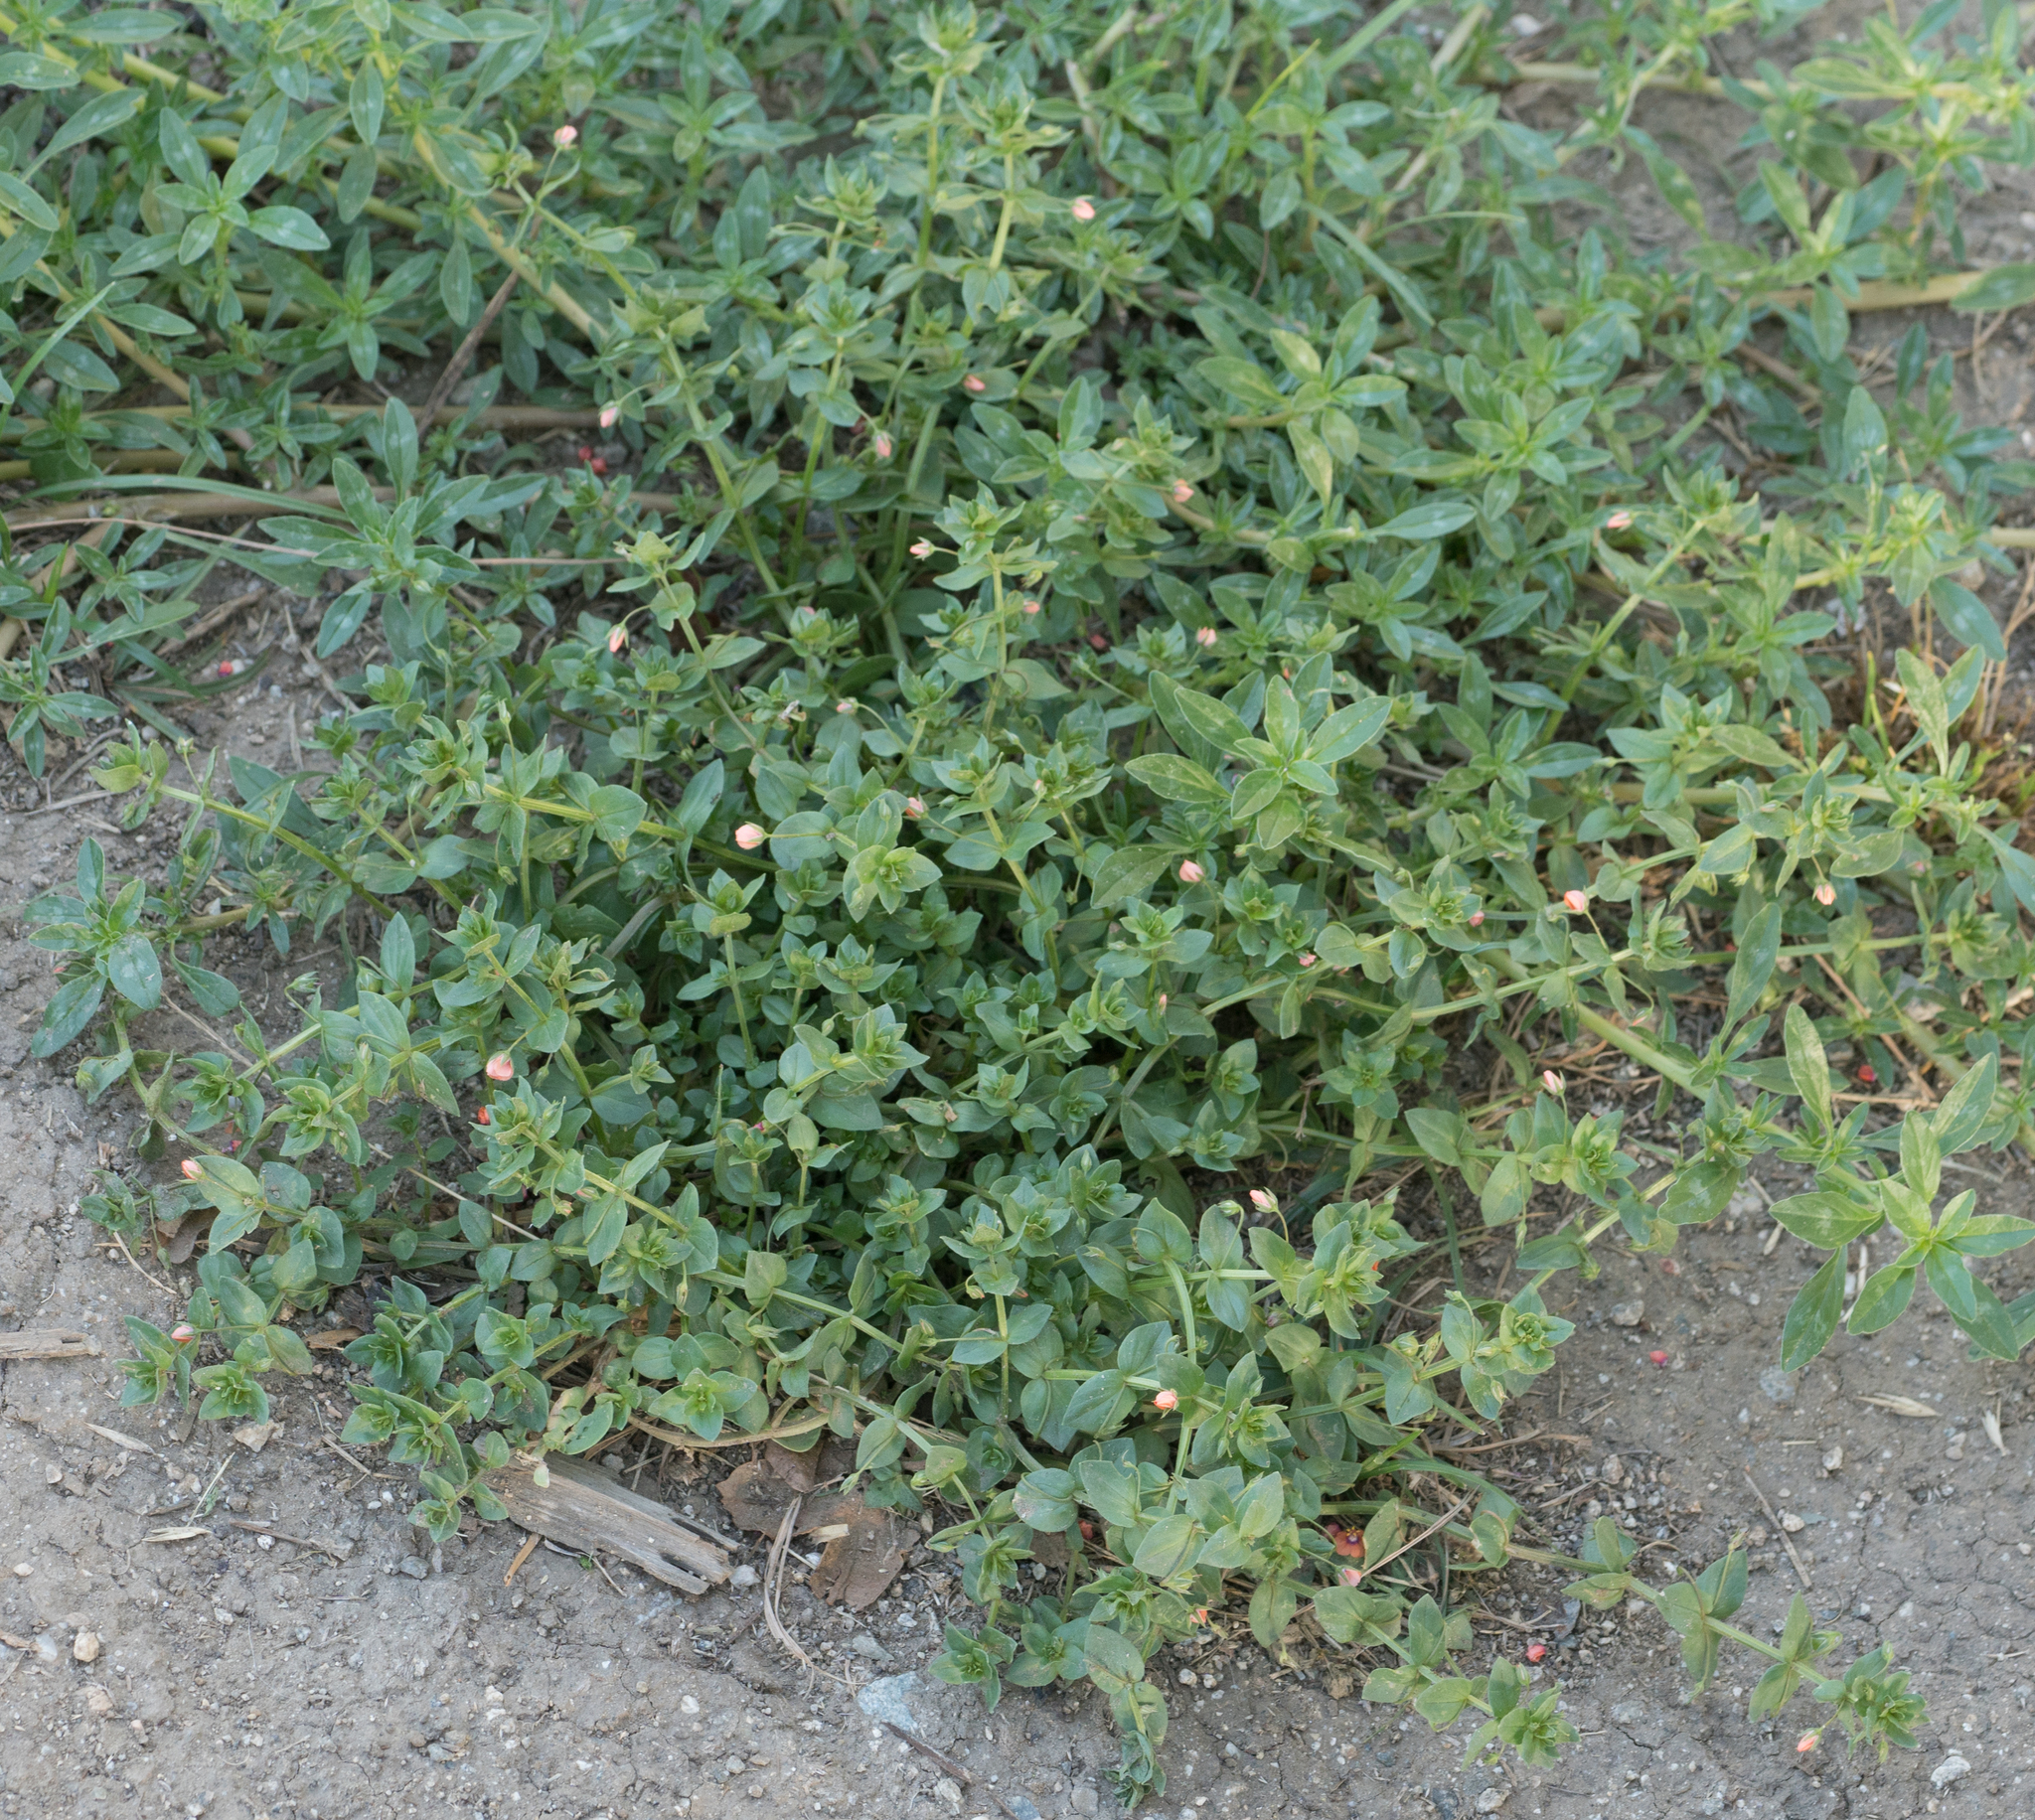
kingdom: Plantae
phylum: Tracheophyta
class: Magnoliopsida
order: Ericales
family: Primulaceae
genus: Lysimachia
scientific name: Lysimachia arvensis
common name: Scarlet pimpernel
